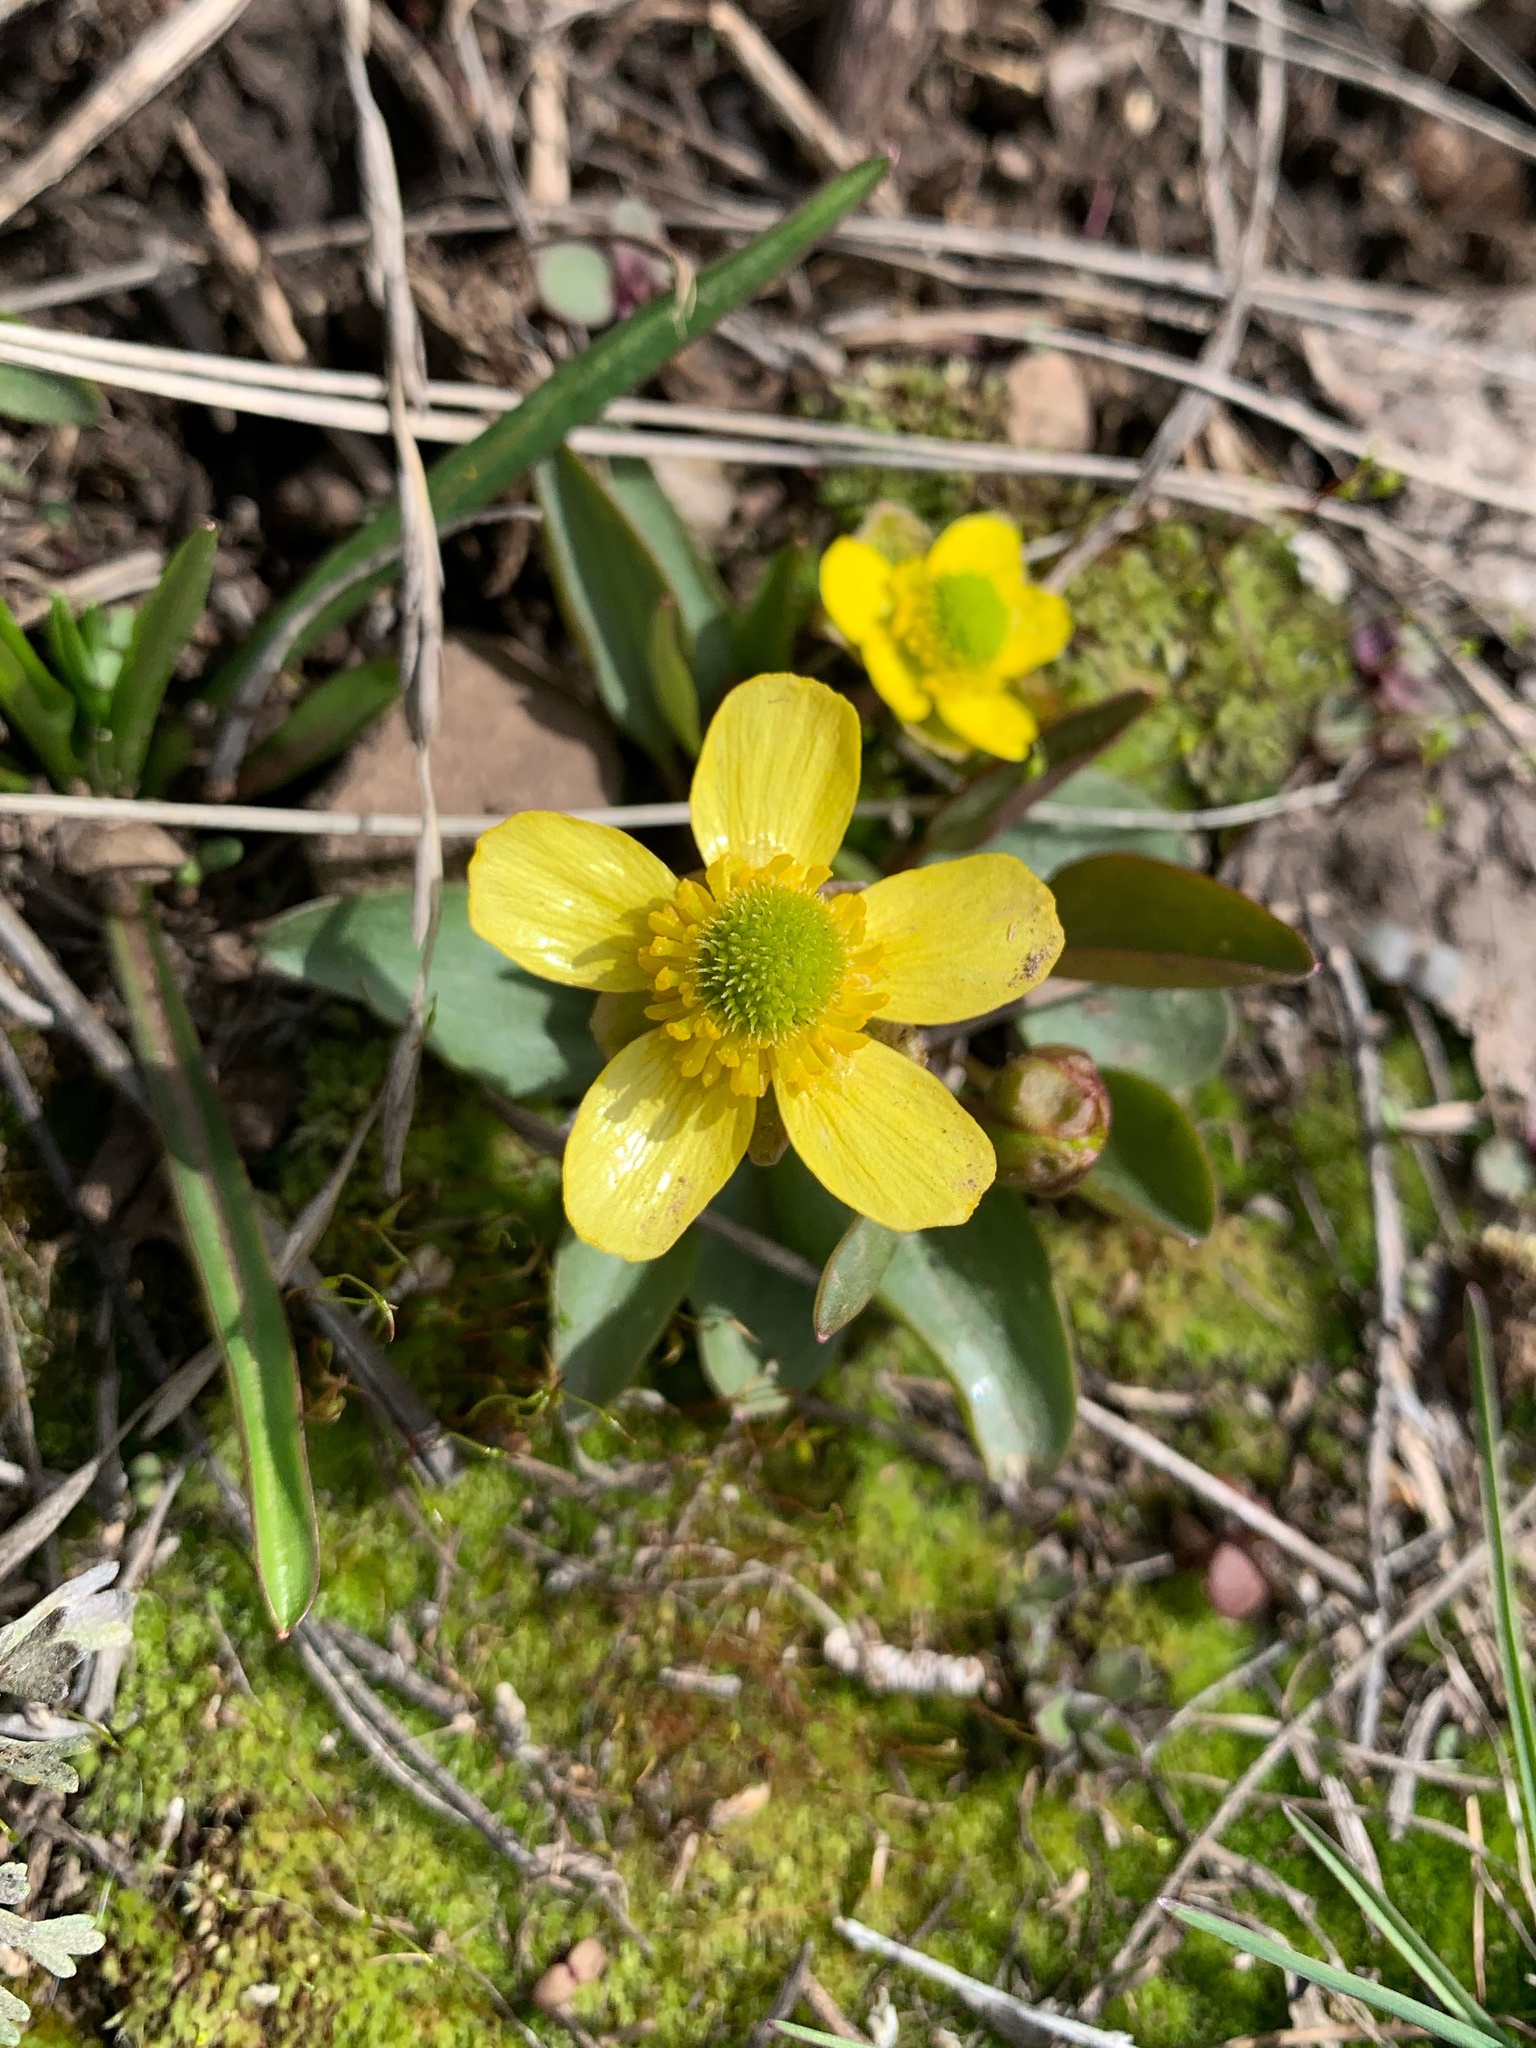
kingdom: Plantae
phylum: Tracheophyta
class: Magnoliopsida
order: Ranunculales
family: Ranunculaceae
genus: Ranunculus
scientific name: Ranunculus glaberrimus
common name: Sagebrush buttercup
